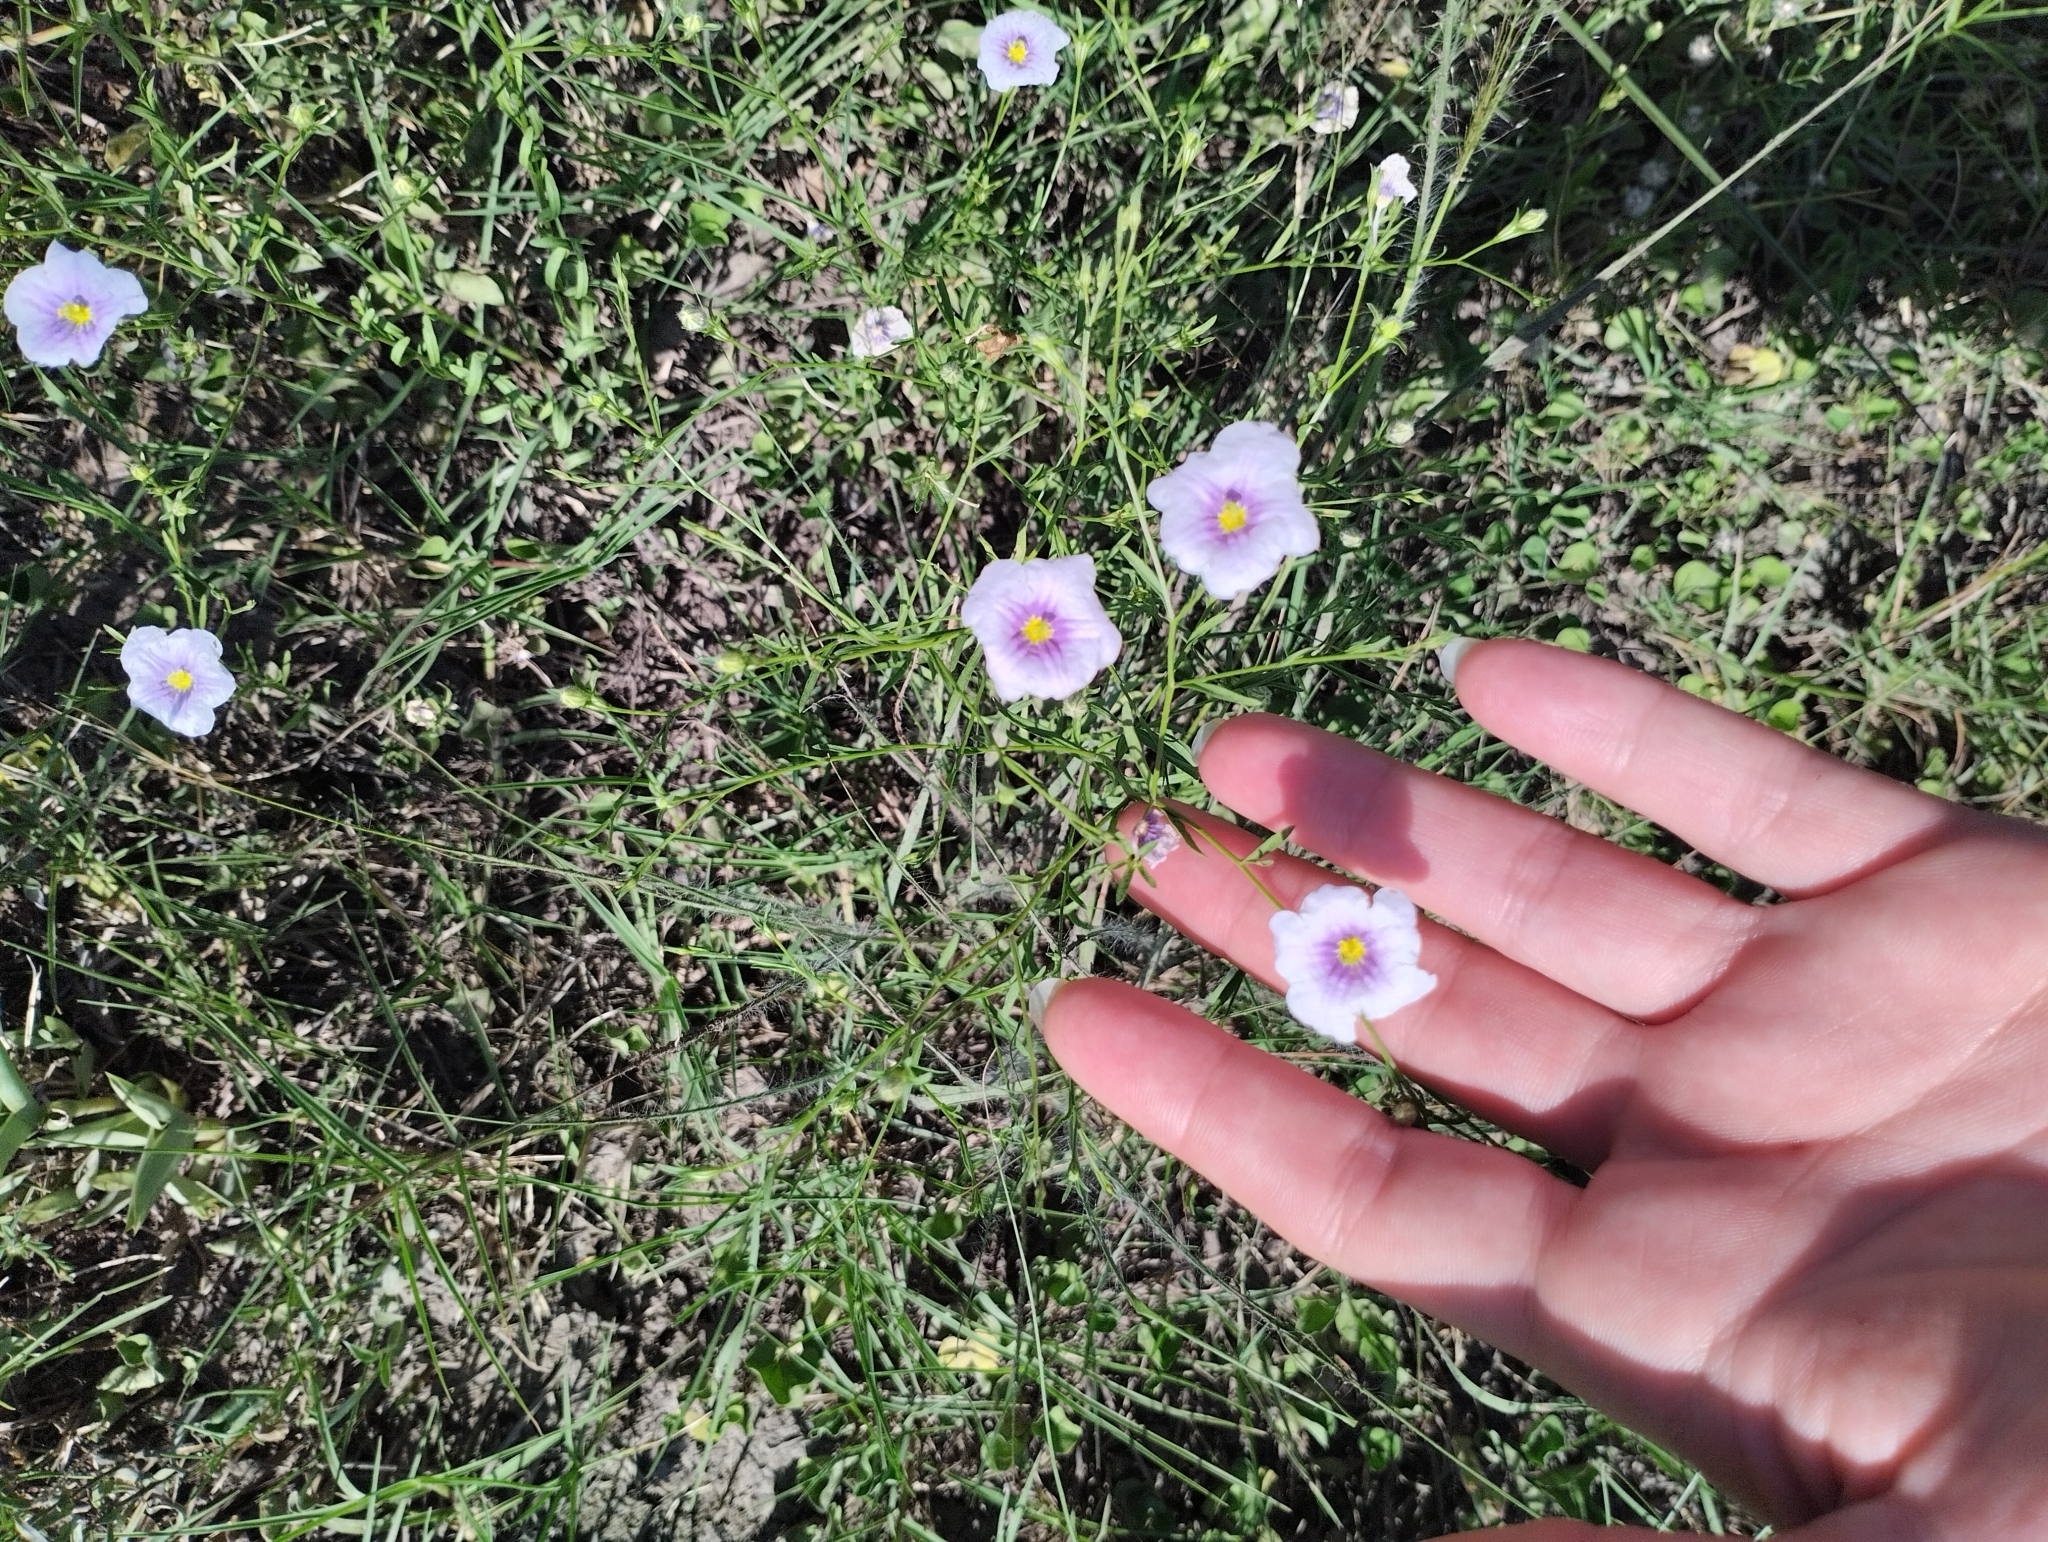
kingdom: Plantae
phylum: Tracheophyta
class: Magnoliopsida
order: Solanales
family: Solanaceae
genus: Nierembergia
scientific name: Nierembergia linariifolia
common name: Dwarf cupflower
